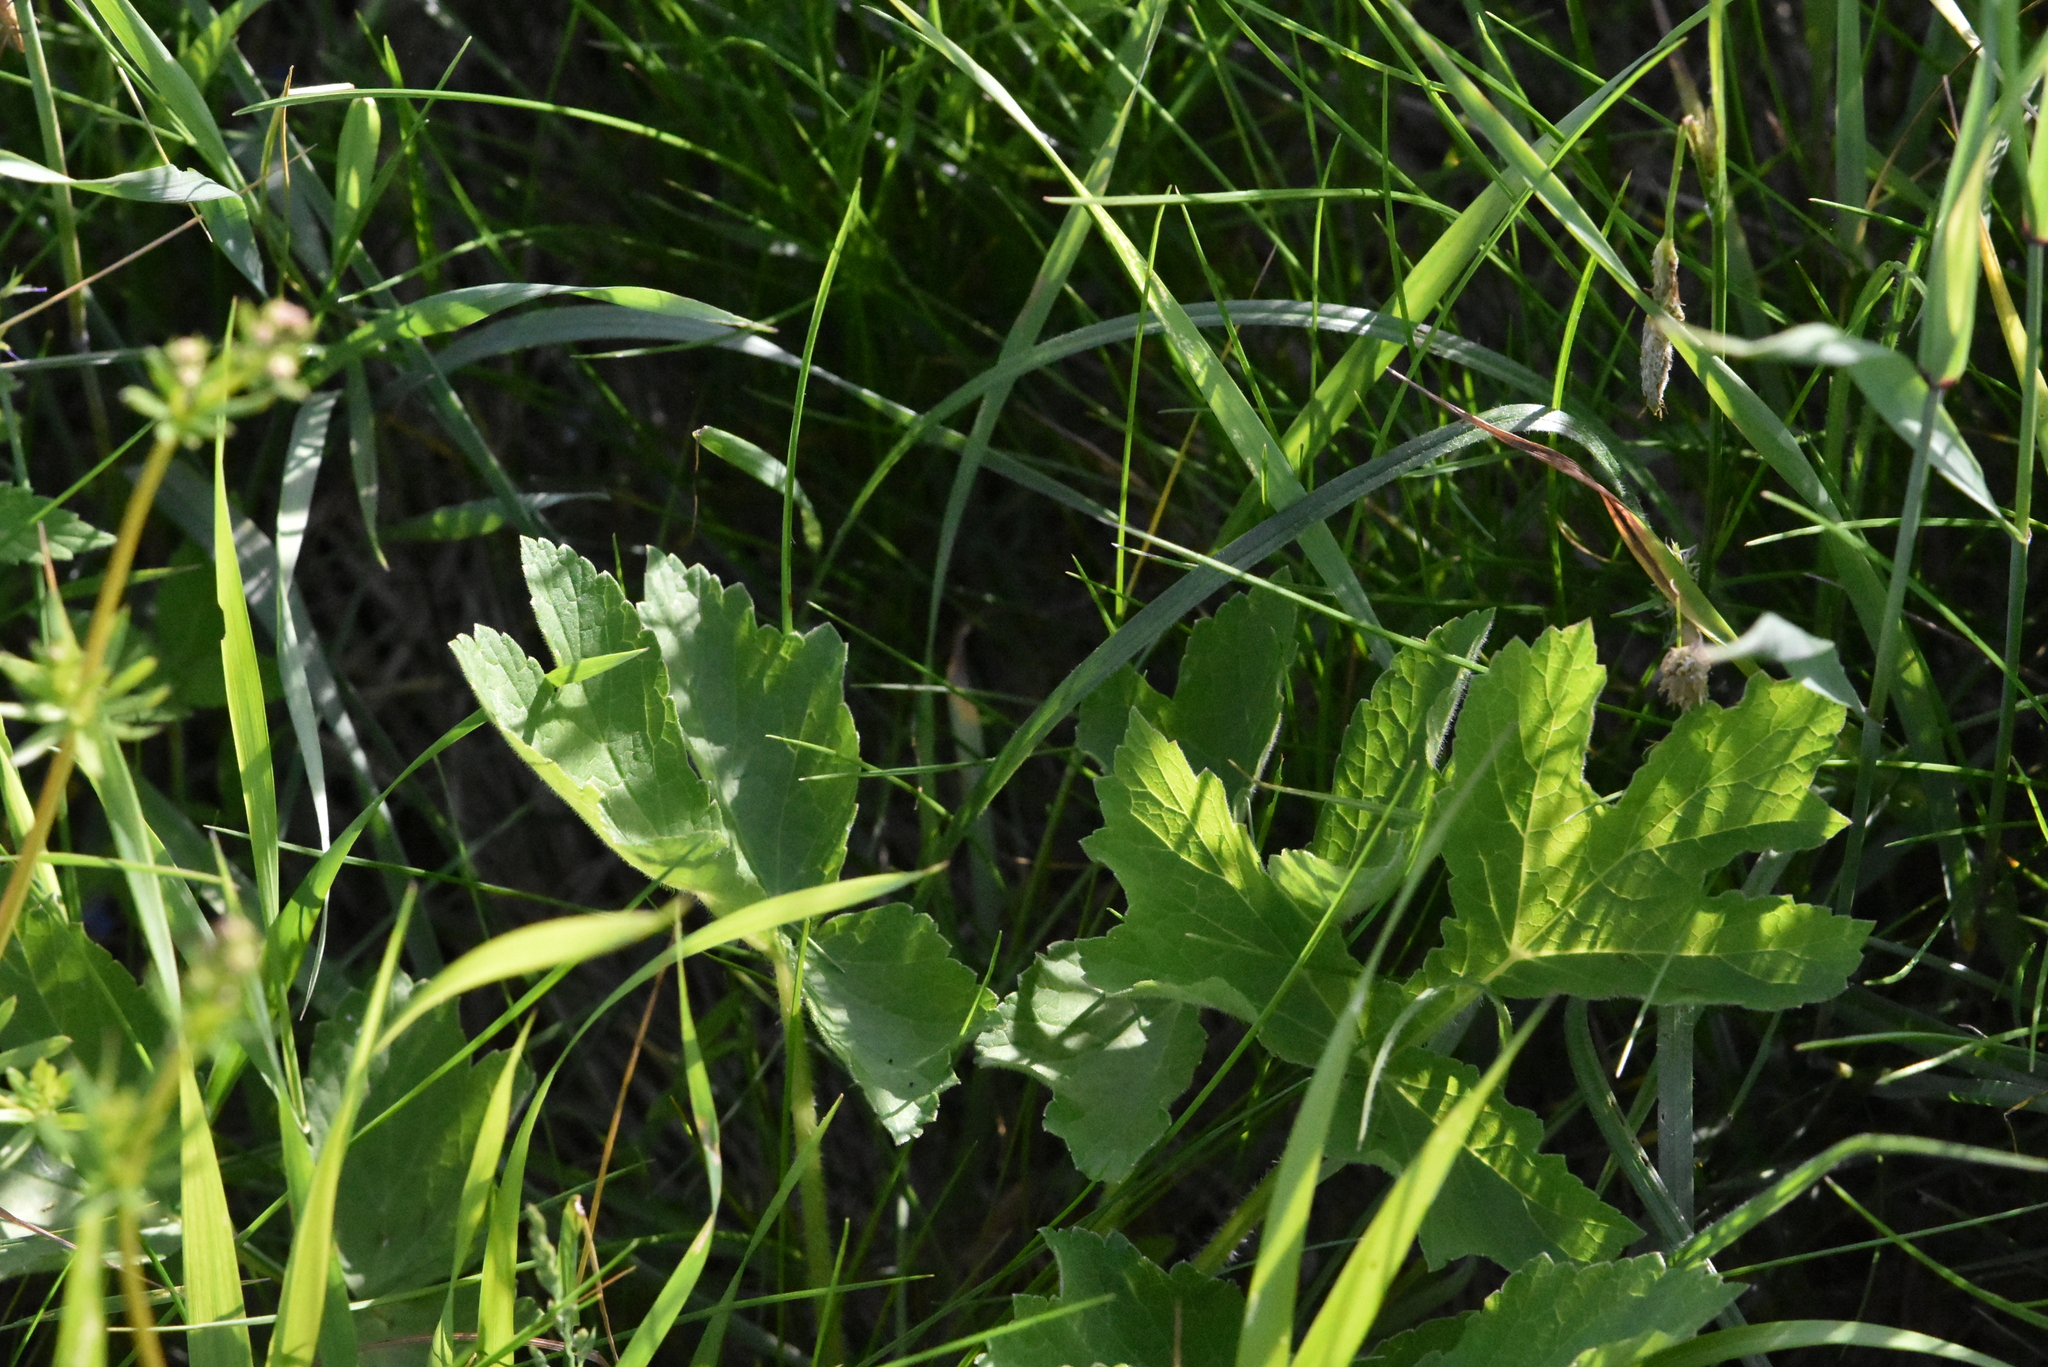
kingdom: Plantae
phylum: Tracheophyta
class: Magnoliopsida
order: Apiales
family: Apiaceae
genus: Heracleum
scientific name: Heracleum sphondylium
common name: Hogweed
